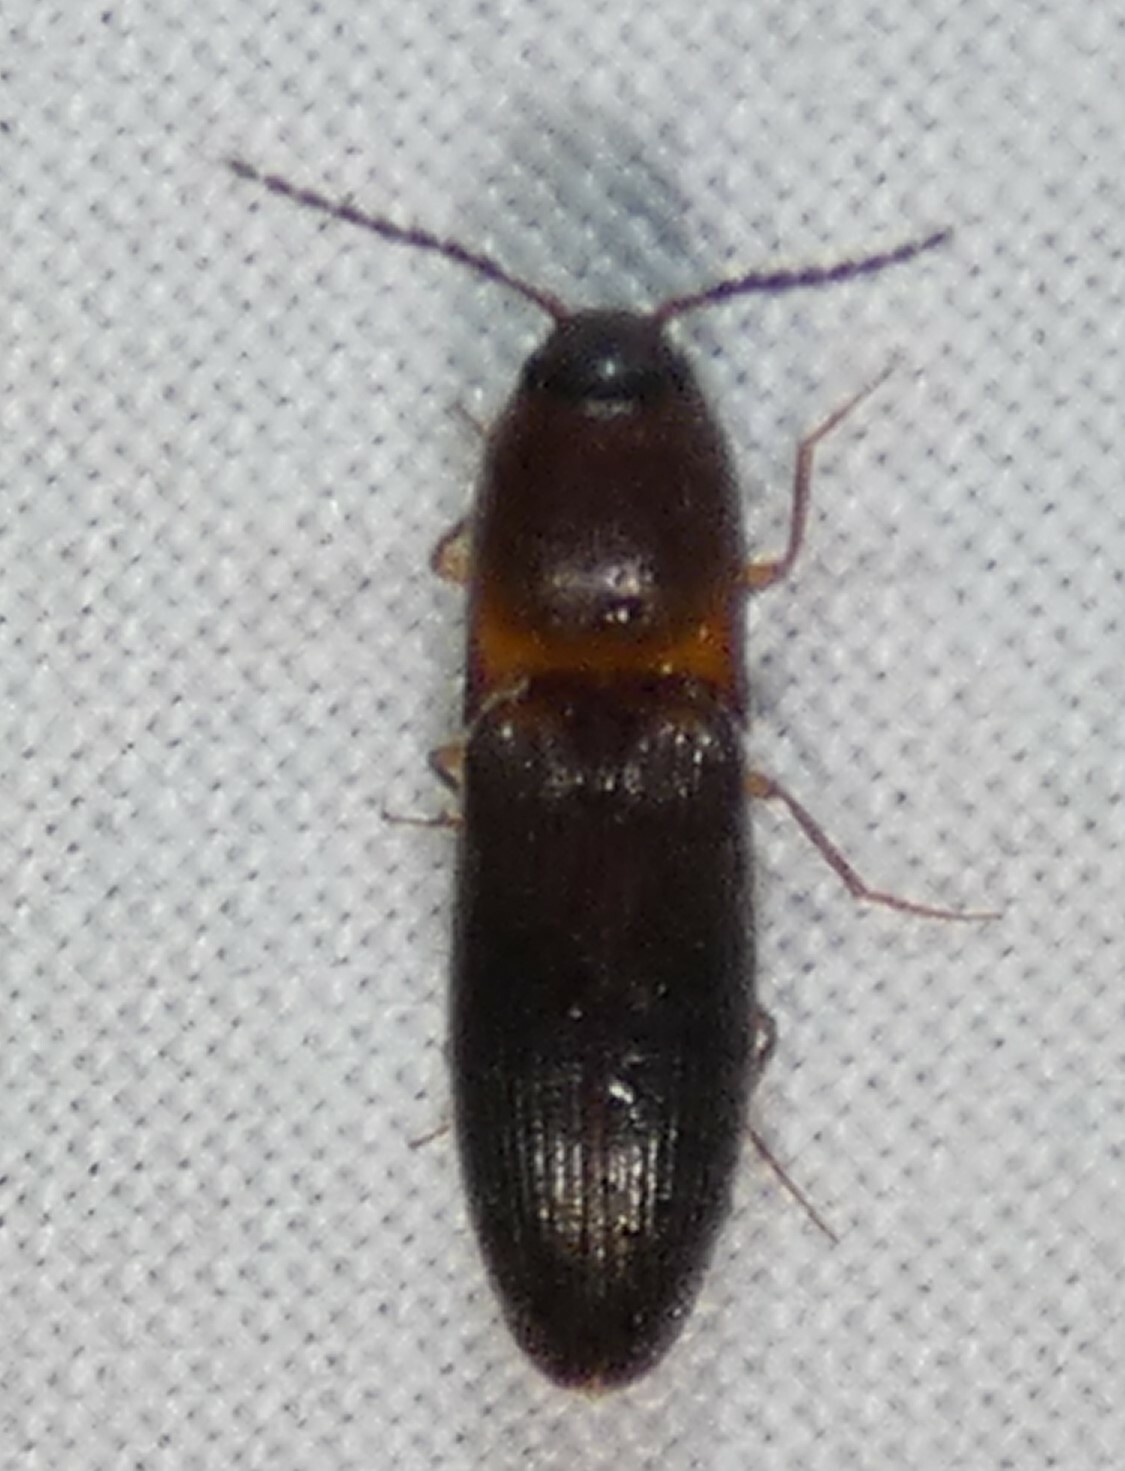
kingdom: Animalia
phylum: Arthropoda
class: Insecta
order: Coleoptera
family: Elateridae
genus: Megapenthes
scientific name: Megapenthes
